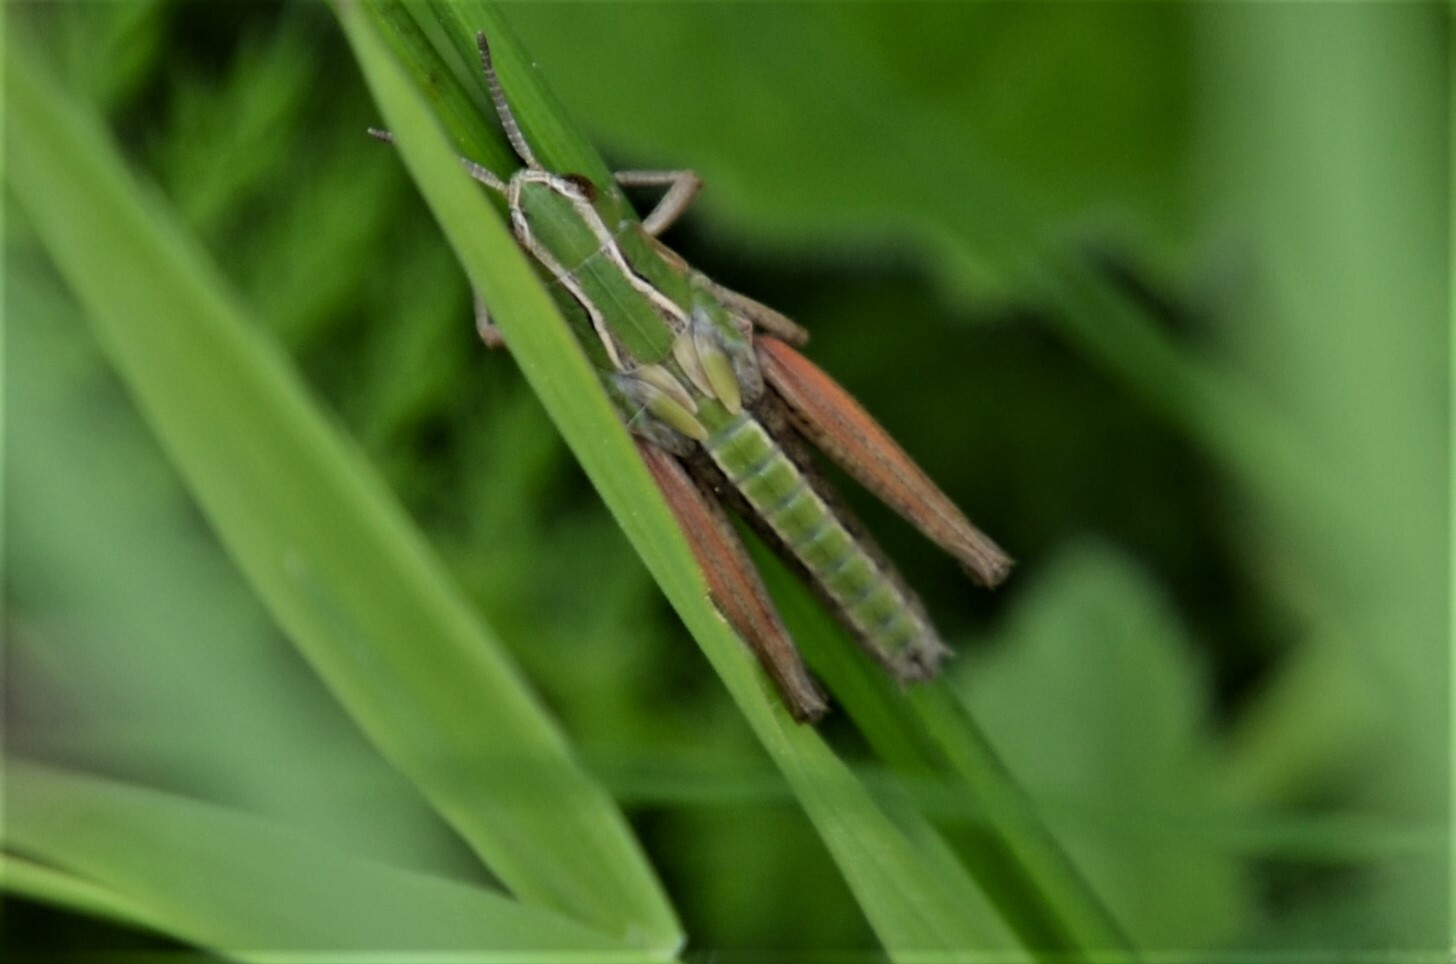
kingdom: Animalia
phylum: Arthropoda
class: Insecta
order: Orthoptera
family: Acrididae
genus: Stenobothrus
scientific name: Stenobothrus lineatus
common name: Stripe-winged grasshopper
